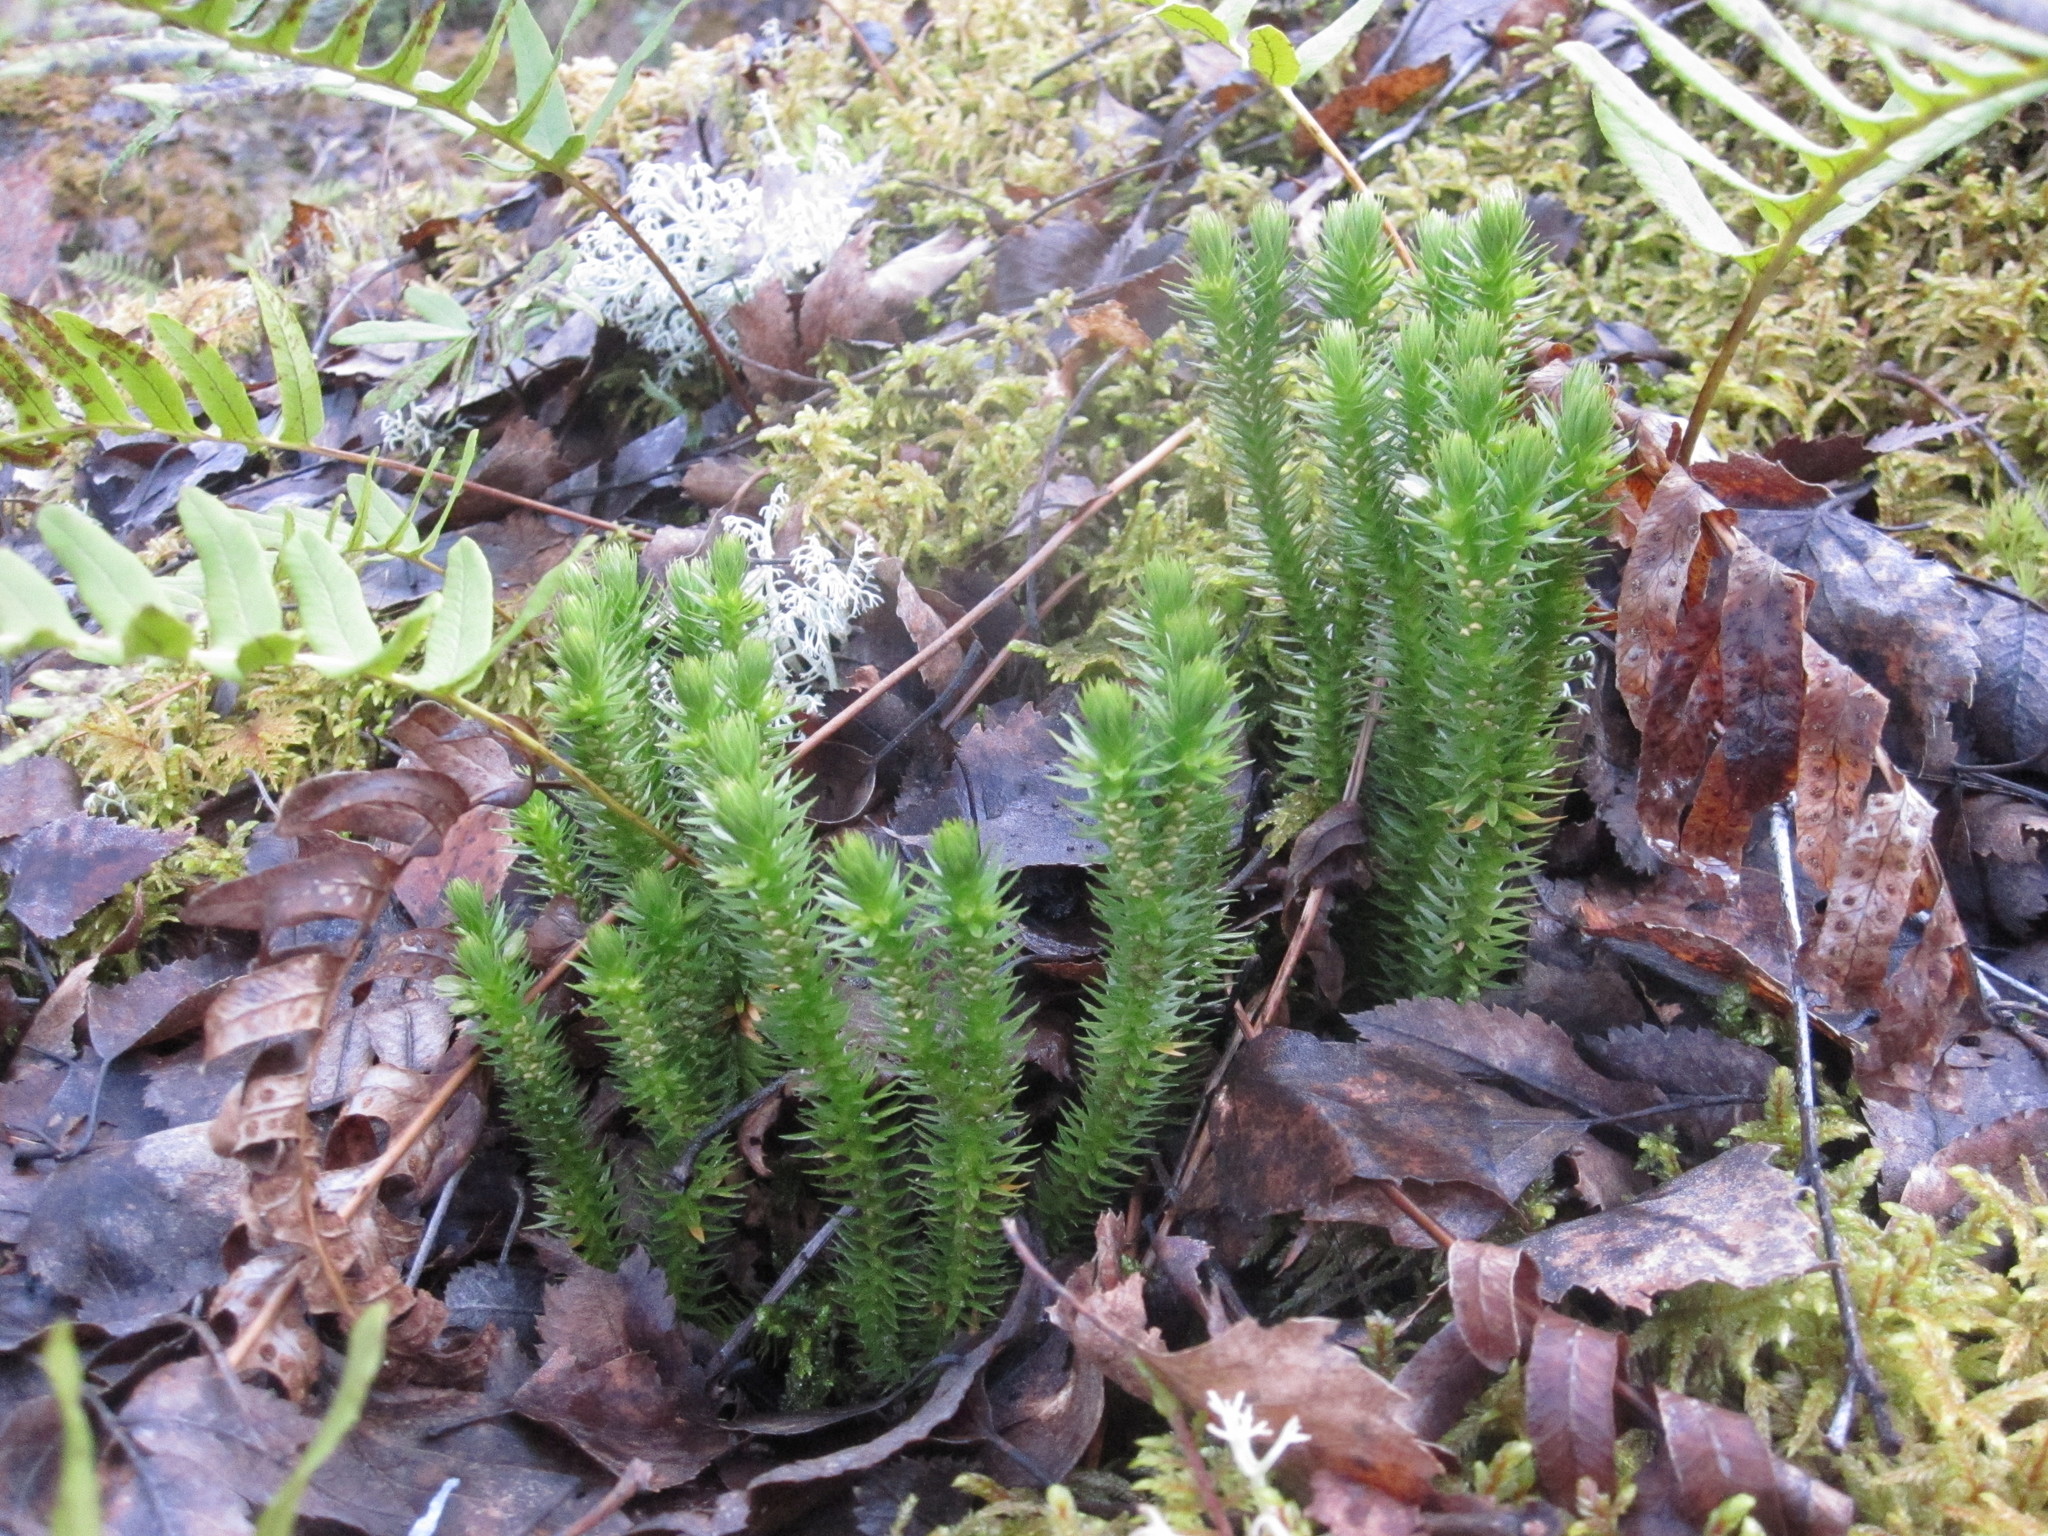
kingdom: Plantae
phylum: Tracheophyta
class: Lycopodiopsida
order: Lycopodiales
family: Lycopodiaceae
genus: Huperzia
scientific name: Huperzia selago
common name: Northern firmoss
